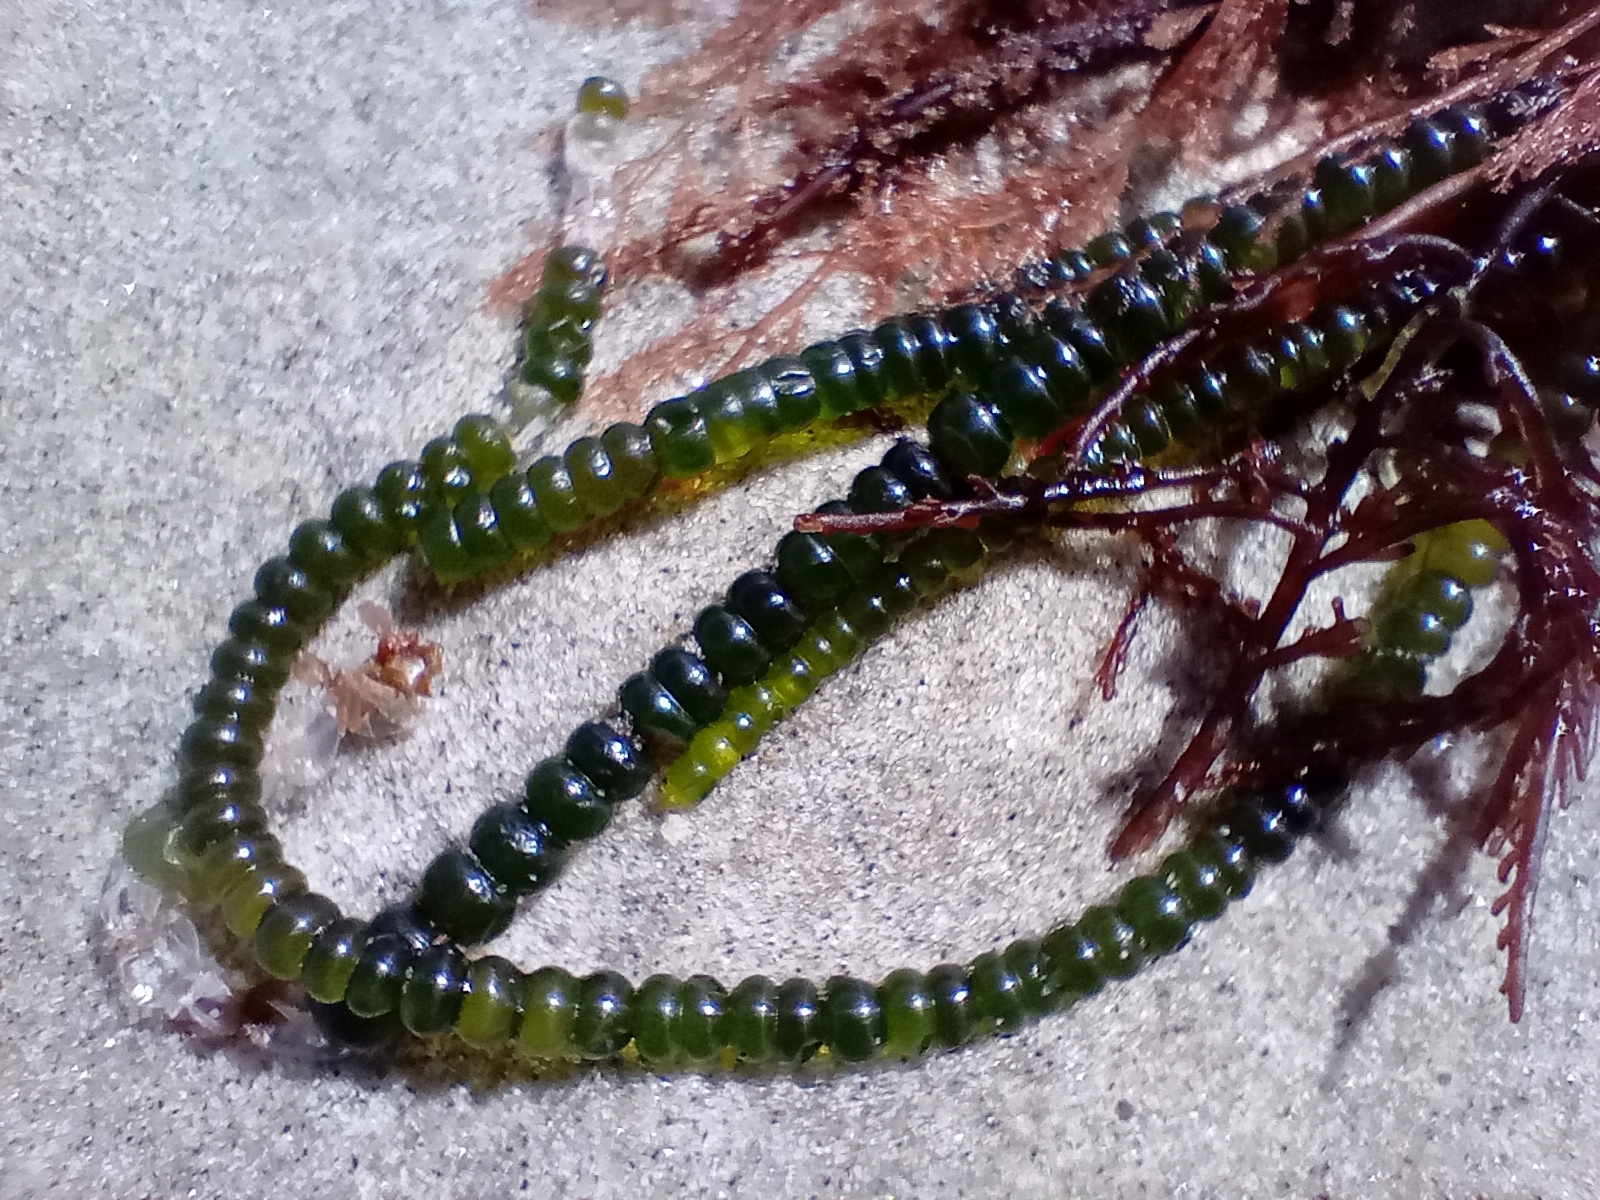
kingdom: Plantae
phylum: Chlorophyta
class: Ulvophyceae
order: Cladophorales
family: Cladophoraceae
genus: Chaetomorpha
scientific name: Chaetomorpha coliformis
